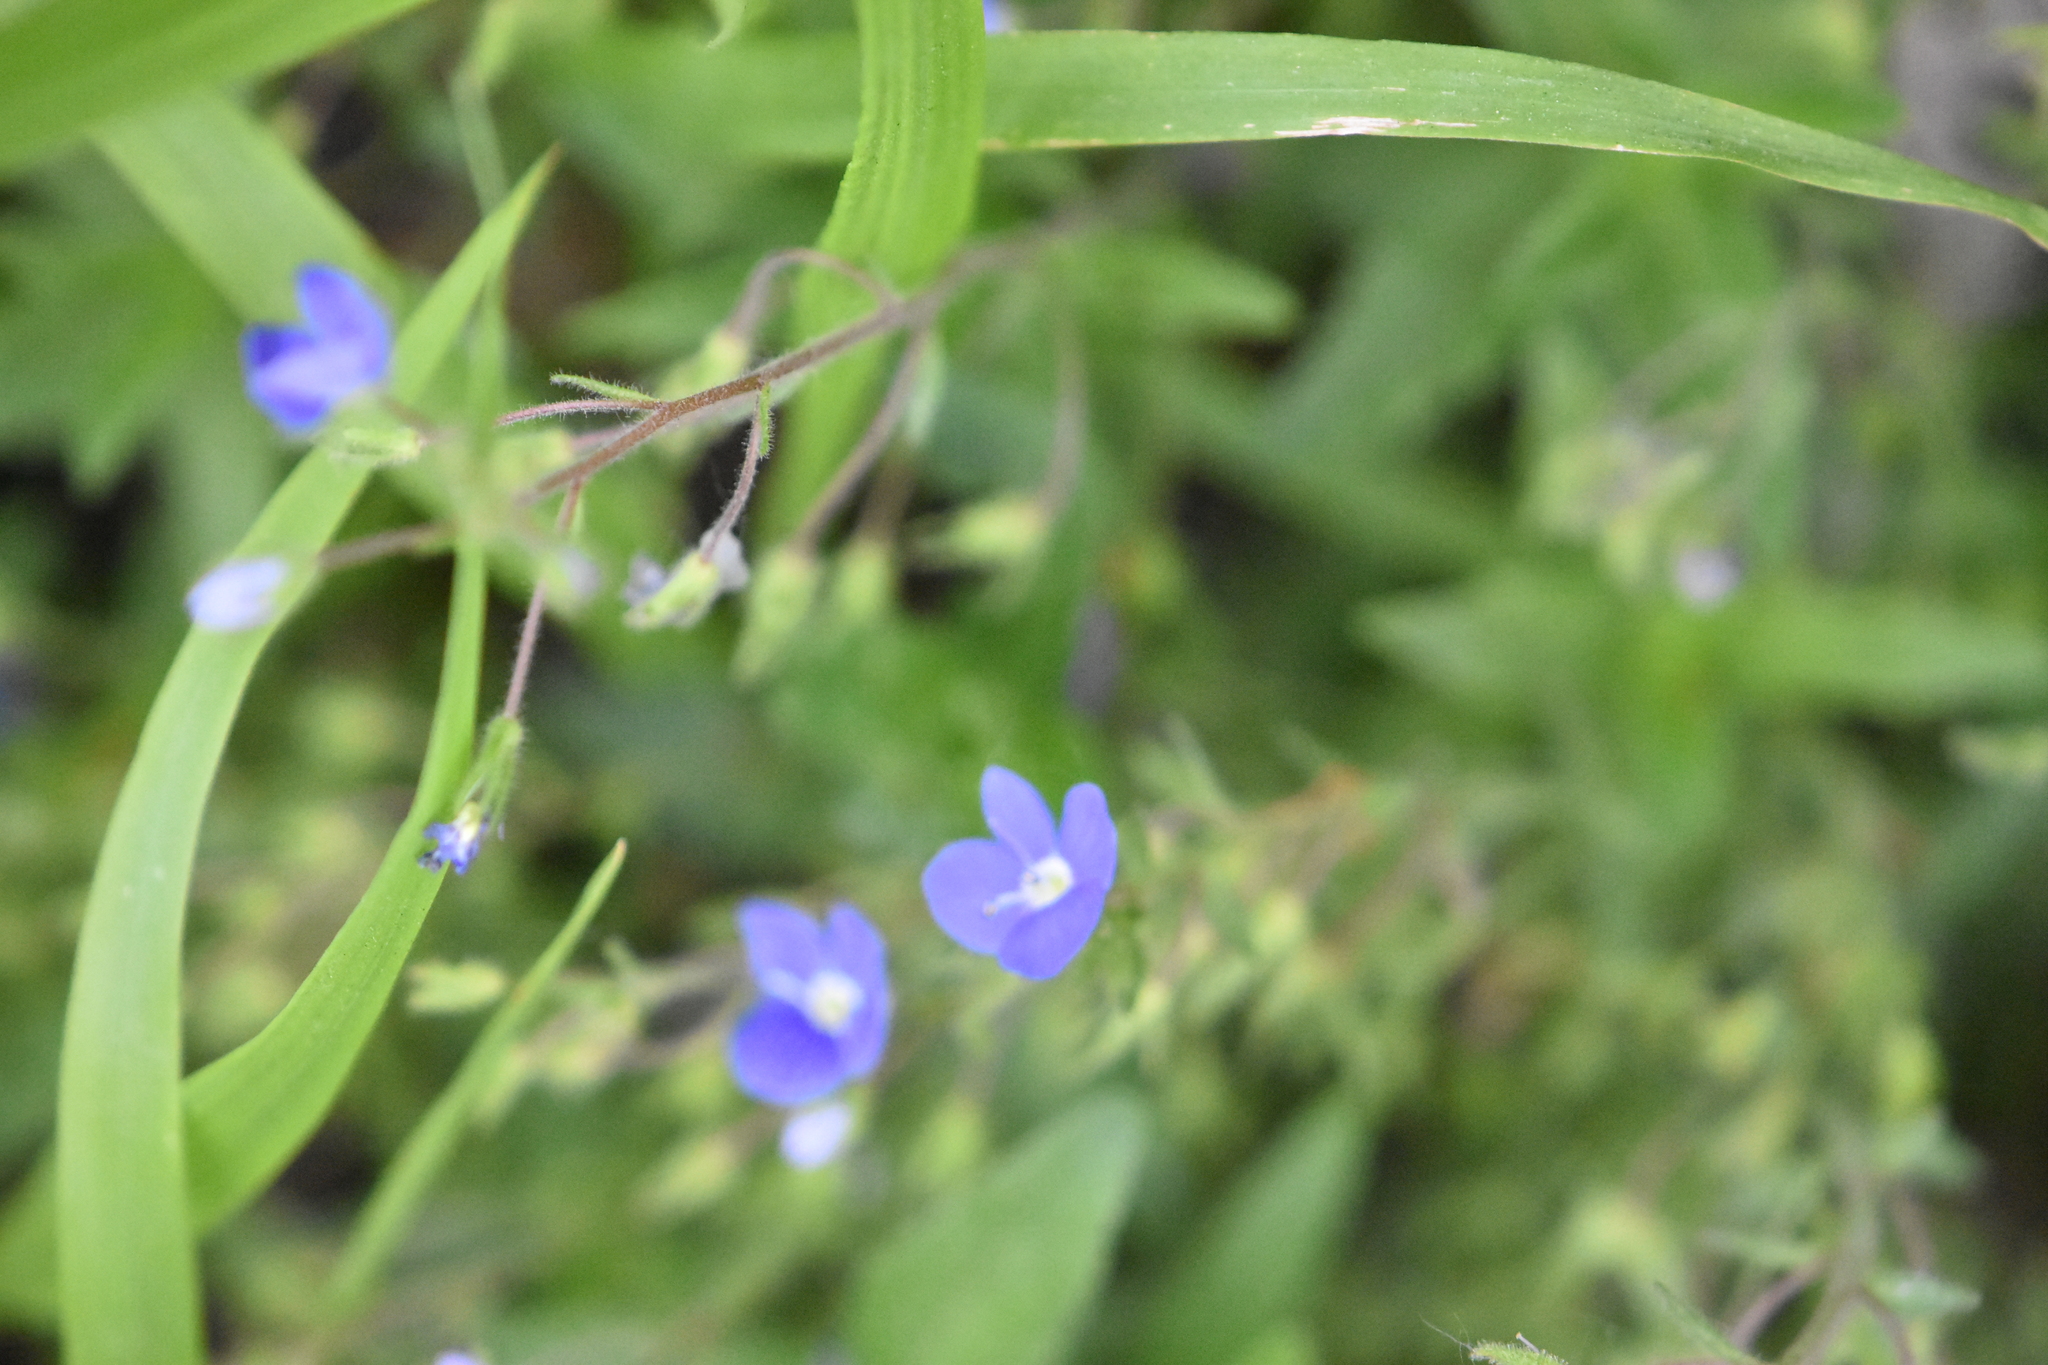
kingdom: Plantae
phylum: Tracheophyta
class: Magnoliopsida
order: Lamiales
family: Plantaginaceae
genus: Veronica
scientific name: Veronica
